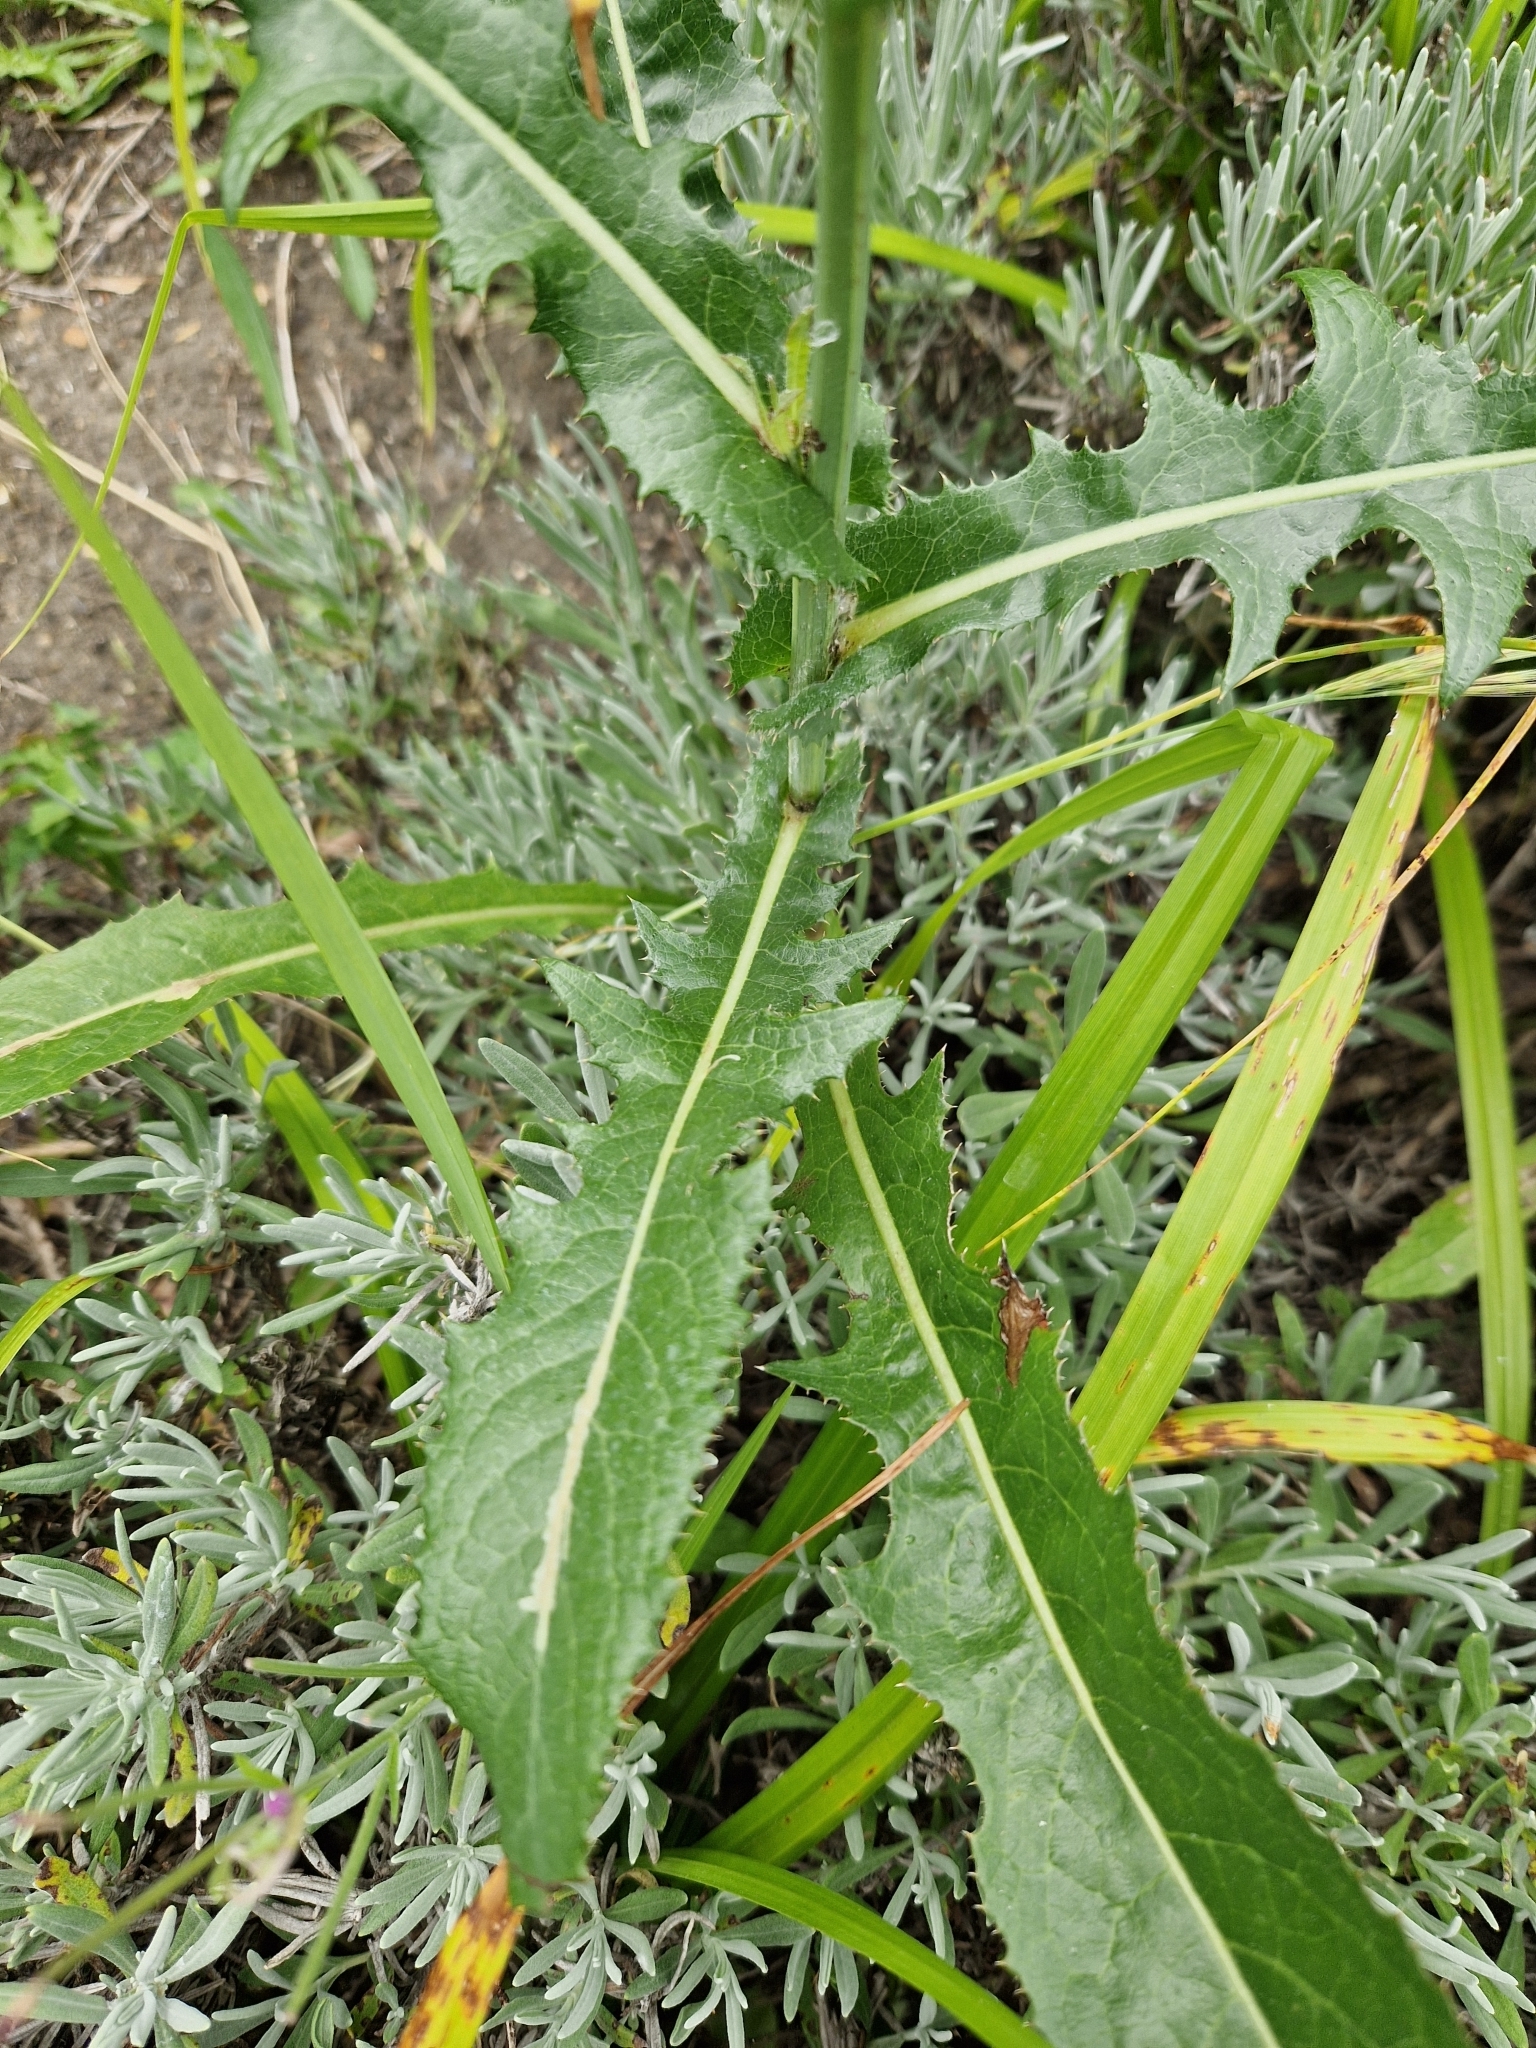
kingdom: Plantae
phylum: Tracheophyta
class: Magnoliopsida
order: Asterales
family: Asteraceae
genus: Sonchus
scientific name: Sonchus arvensis
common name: Perennial sow-thistle
